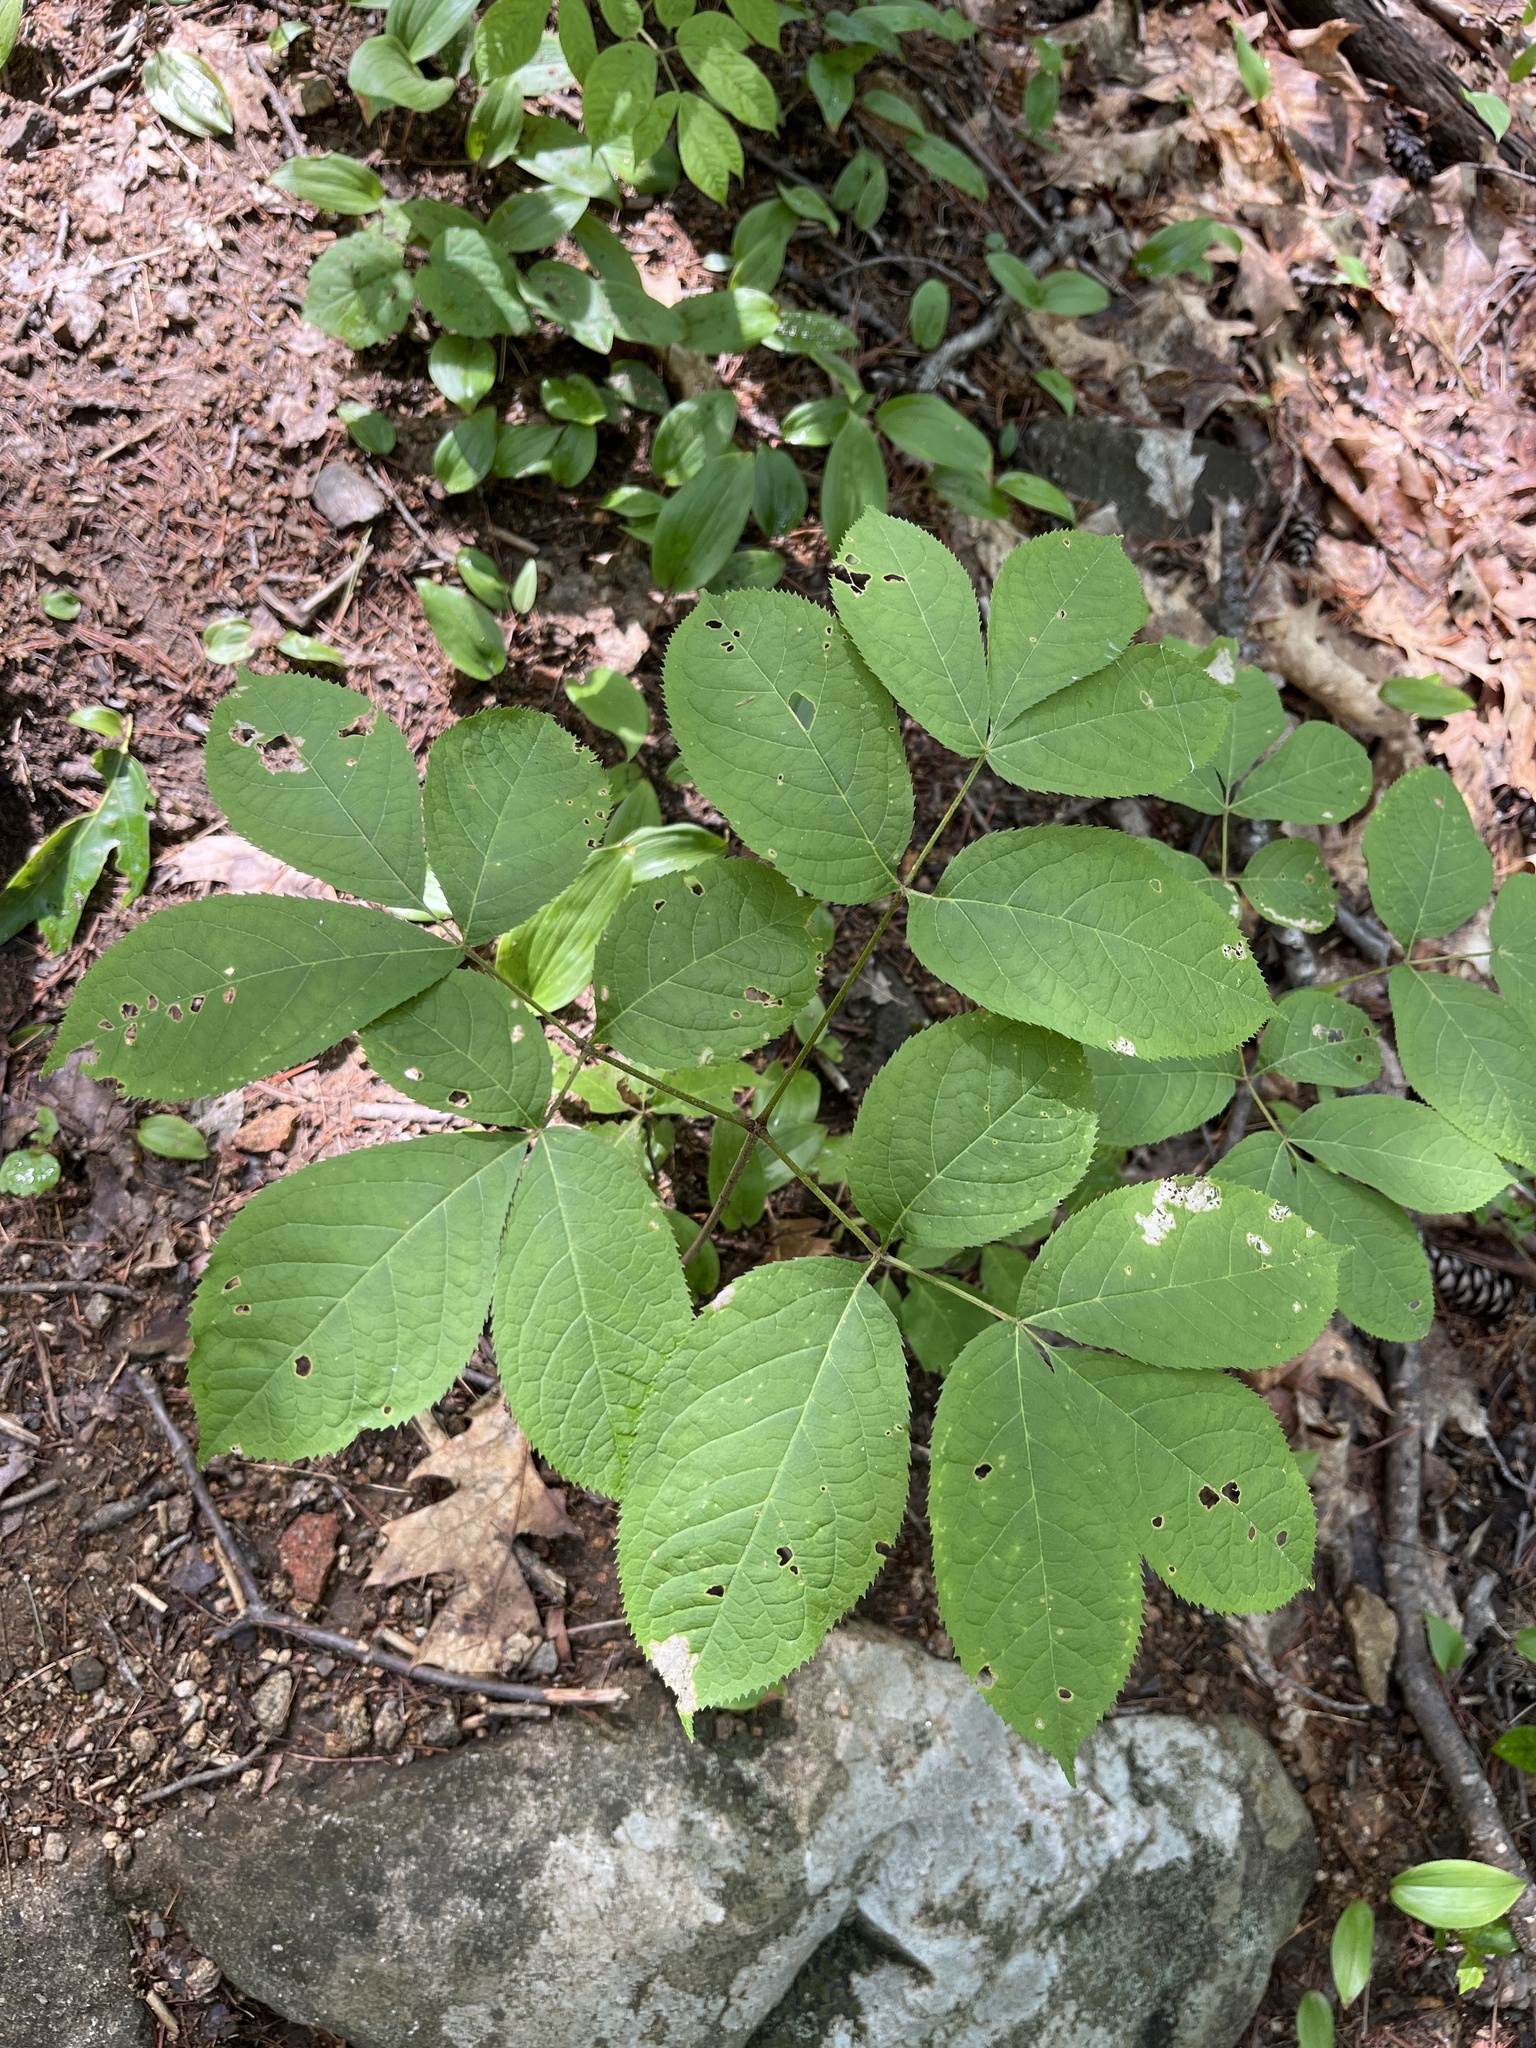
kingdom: Plantae
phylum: Tracheophyta
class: Magnoliopsida
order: Apiales
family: Araliaceae
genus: Aralia
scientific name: Aralia nudicaulis
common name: Wild sarsaparilla
